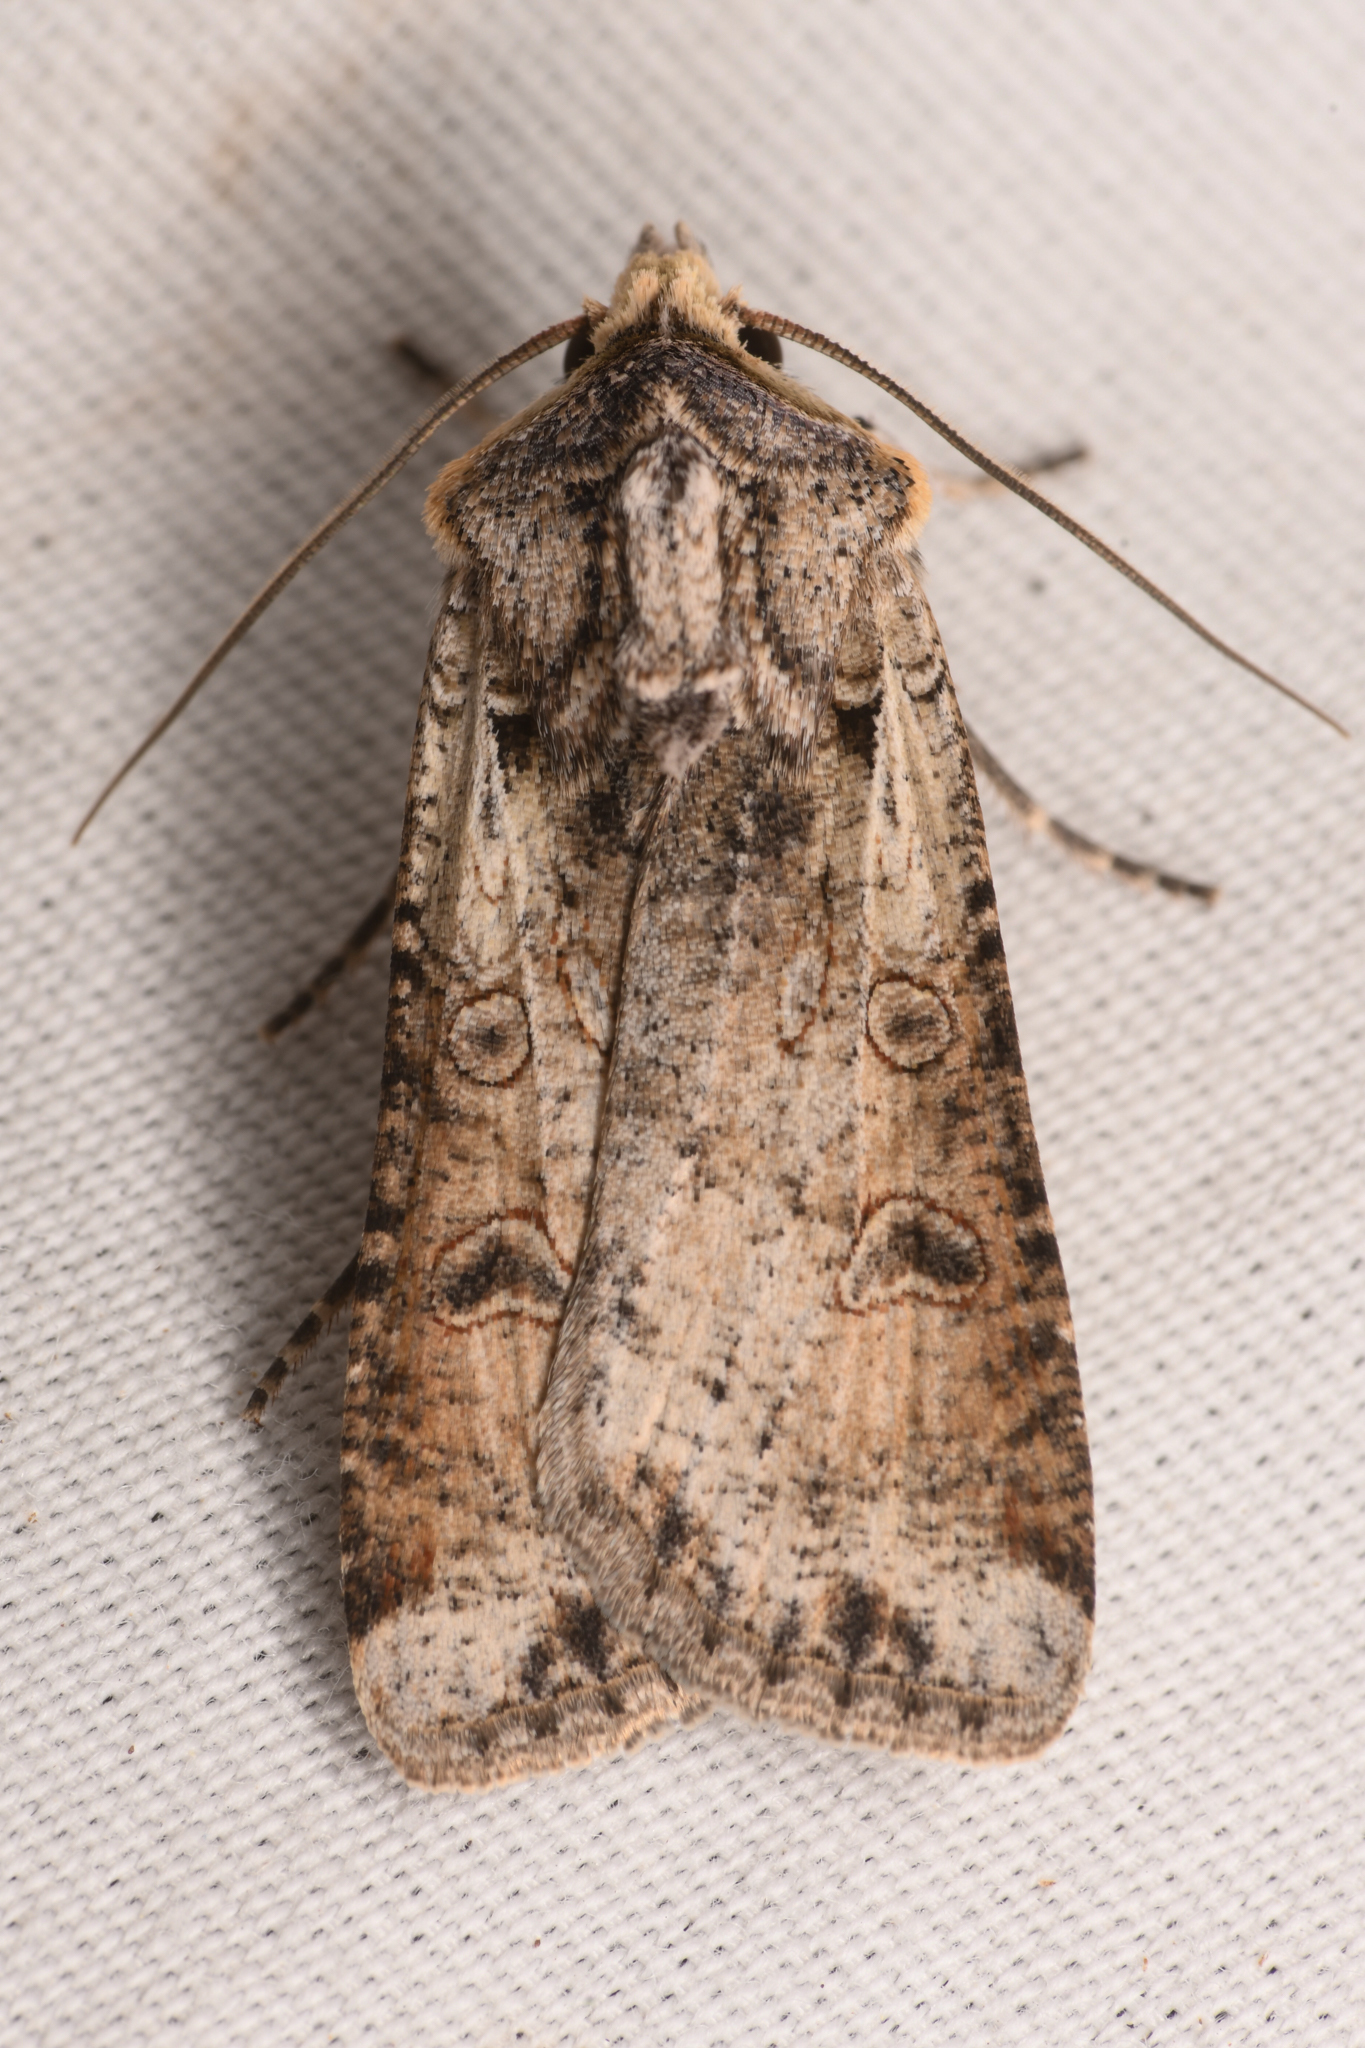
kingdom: Animalia
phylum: Arthropoda
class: Insecta
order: Lepidoptera
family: Noctuidae
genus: Hemieuxoa
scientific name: Hemieuxoa rudens
